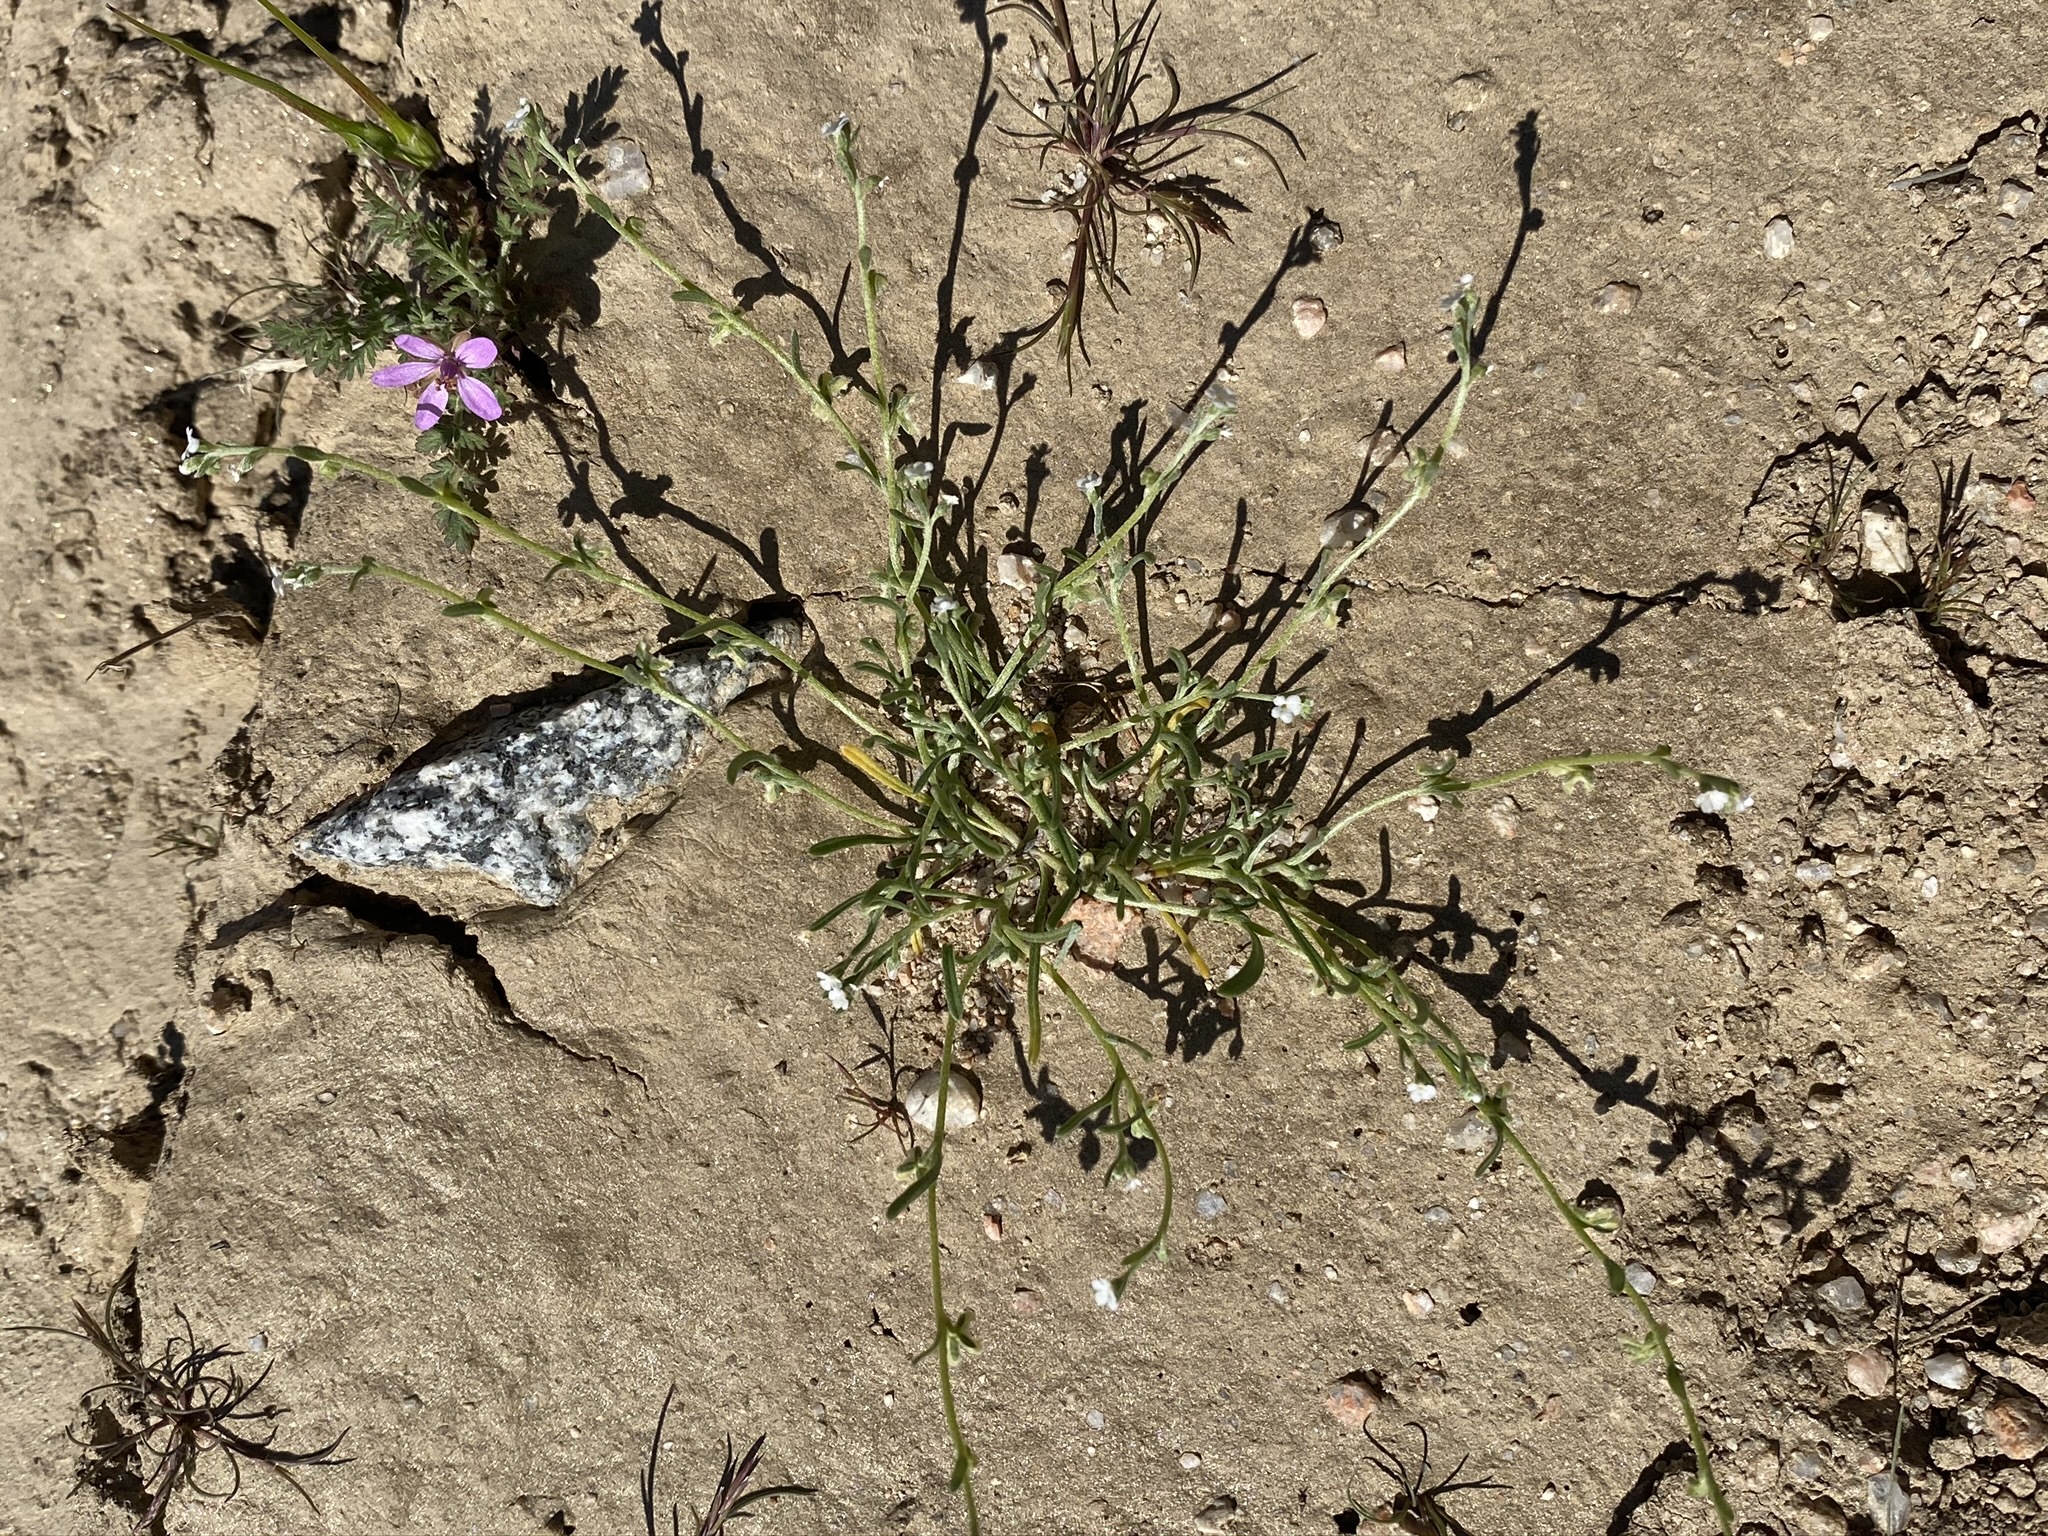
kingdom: Plantae
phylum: Tracheophyta
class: Magnoliopsida
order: Boraginales
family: Boraginaceae
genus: Pectocarya
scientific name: Pectocarya penicillata
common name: Short-leaved combseed
